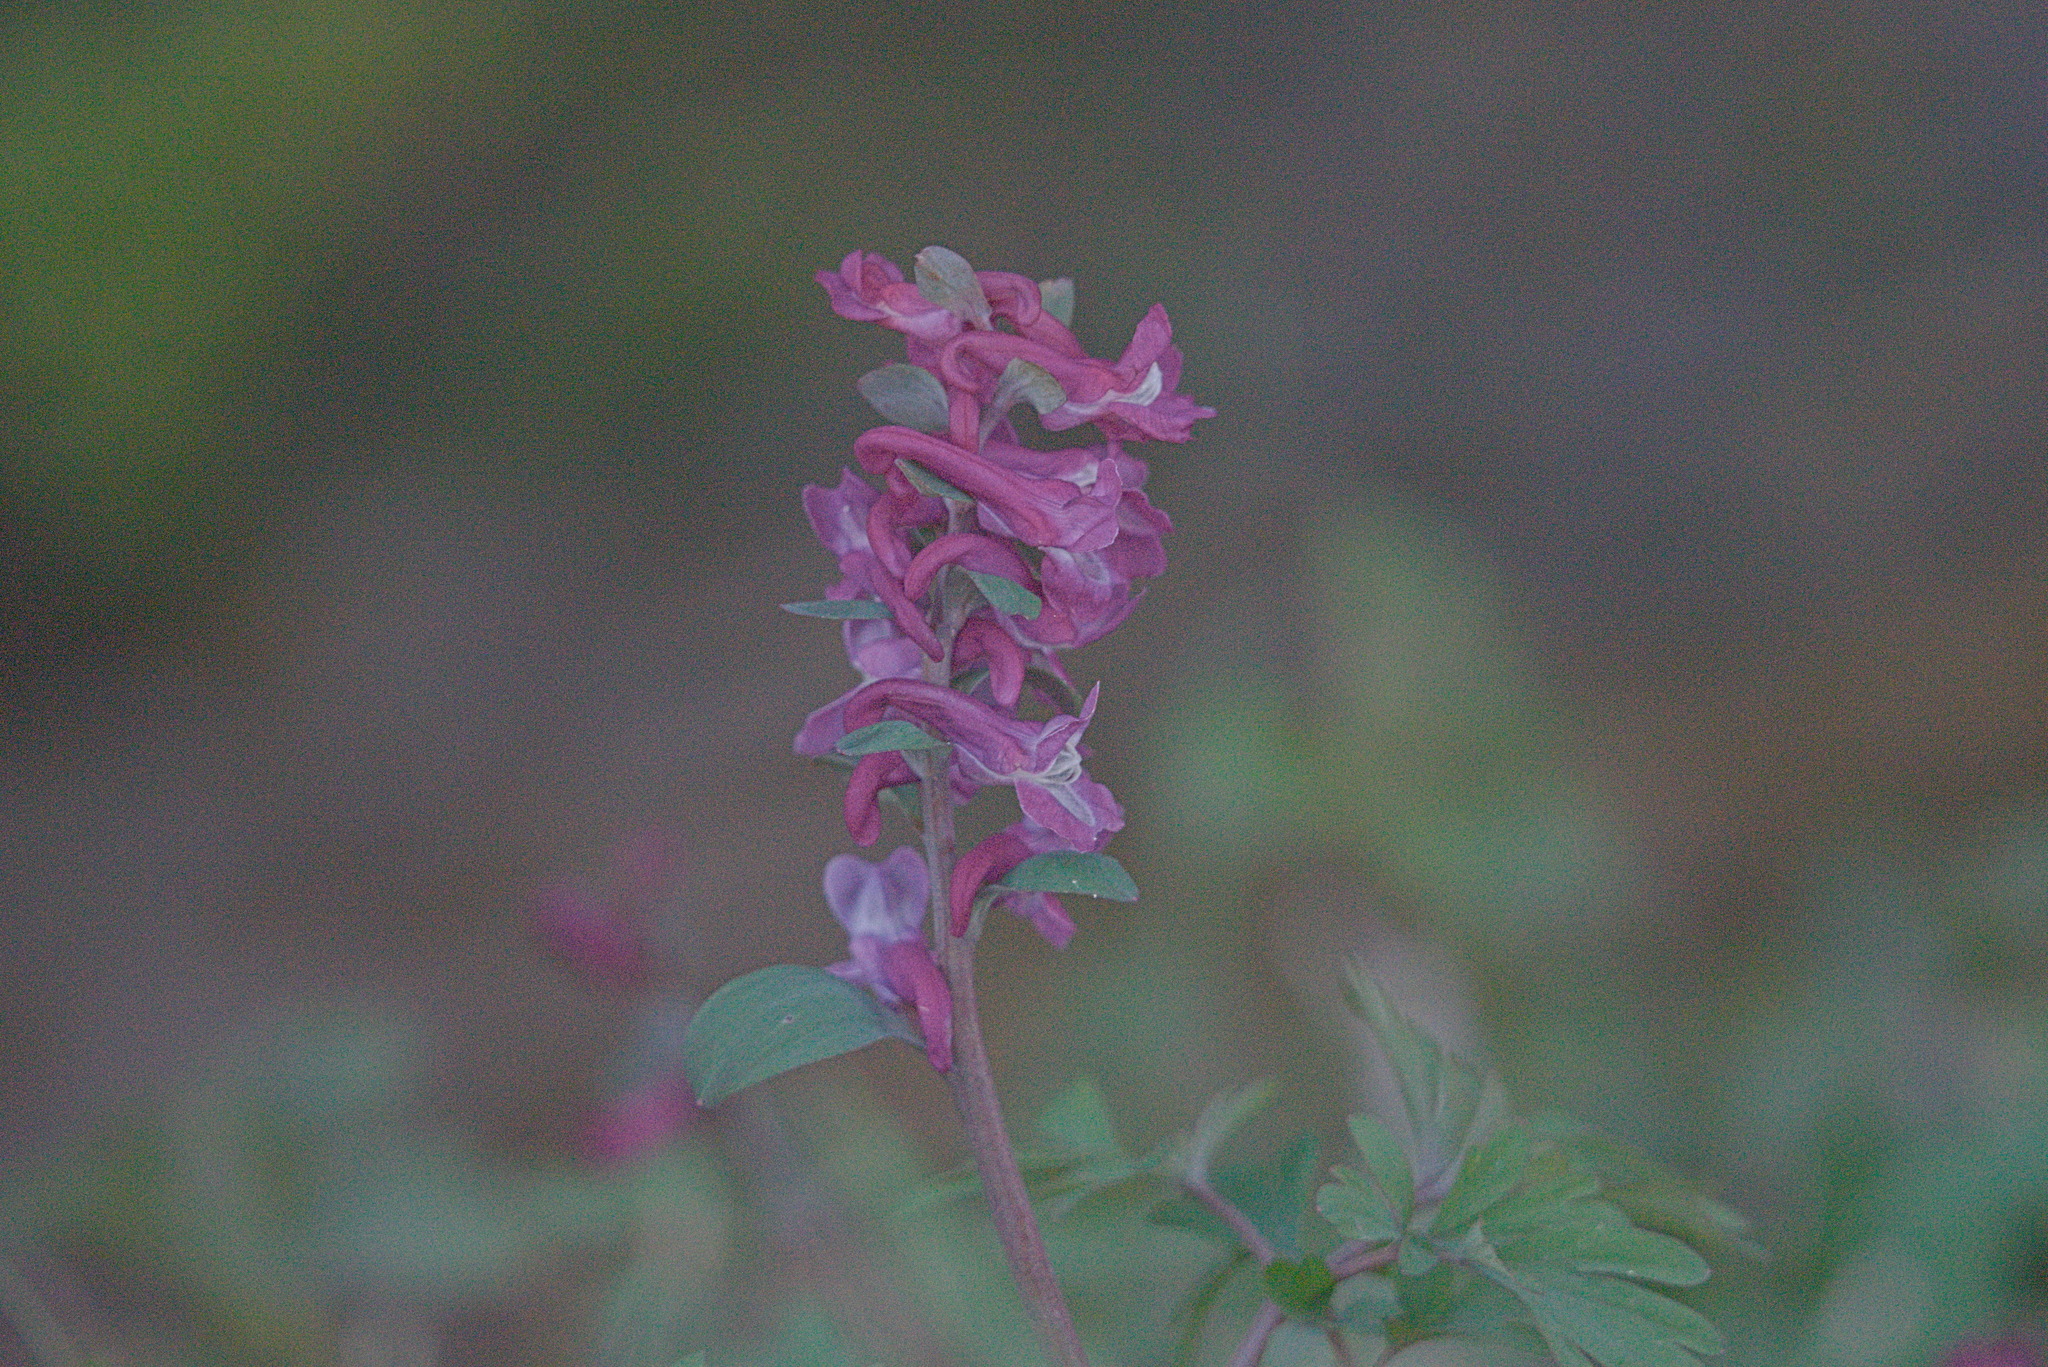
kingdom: Plantae
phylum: Tracheophyta
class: Magnoliopsida
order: Ranunculales
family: Papaveraceae
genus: Corydalis
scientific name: Corydalis cava
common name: Hollowroot
